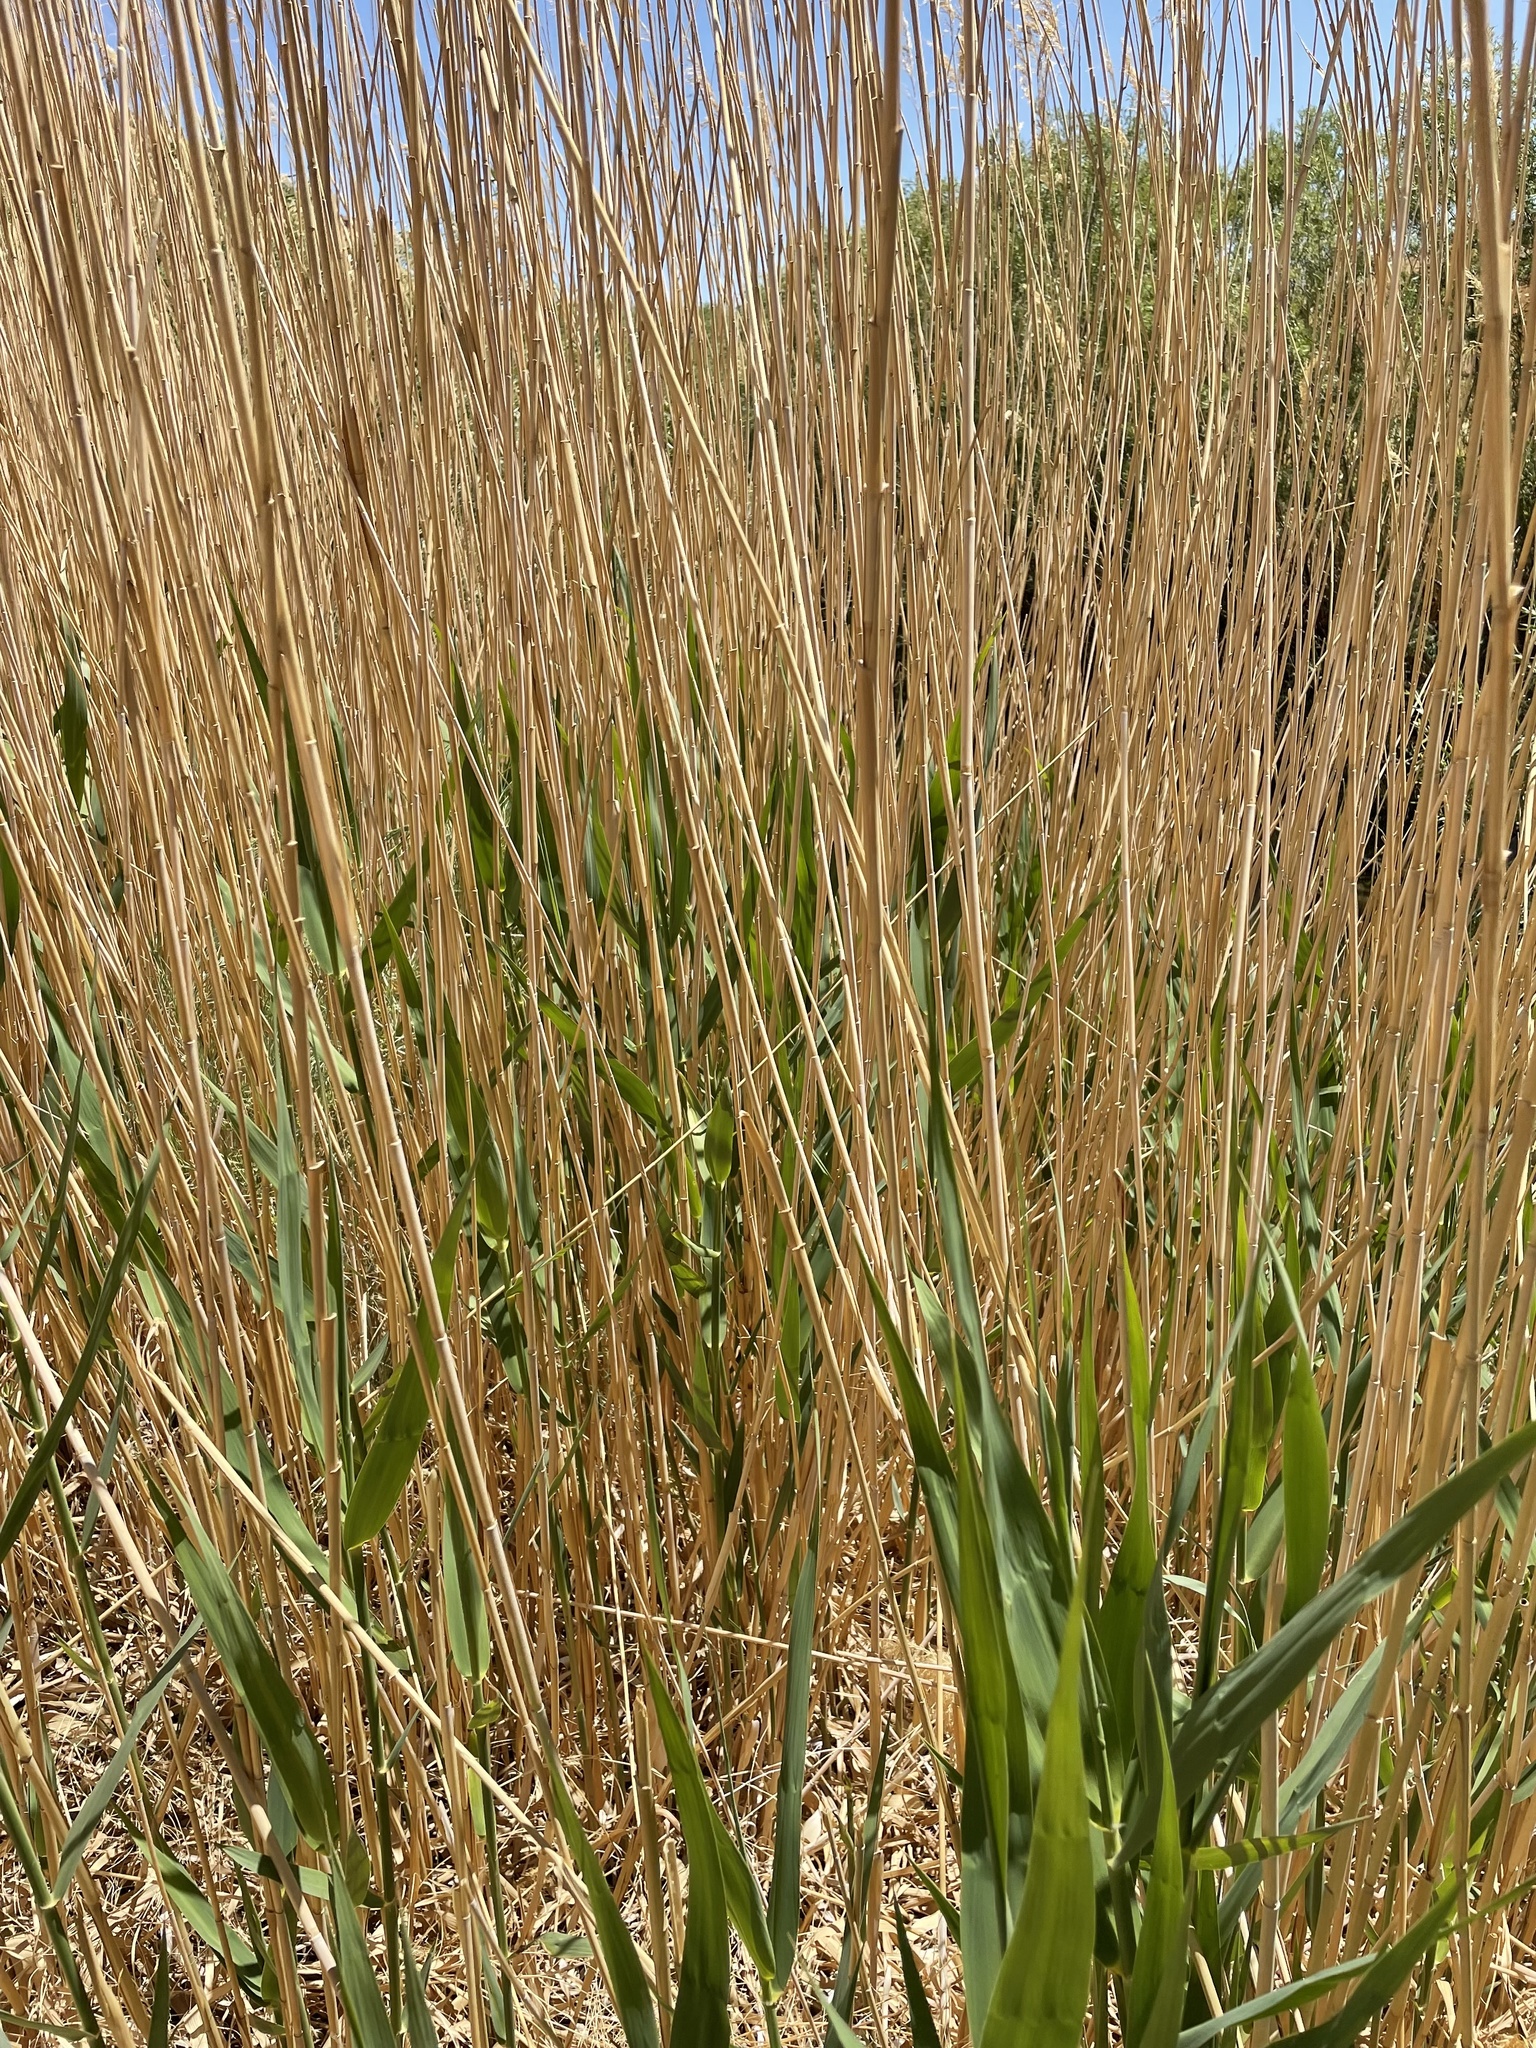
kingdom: Plantae
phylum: Tracheophyta
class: Liliopsida
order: Poales
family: Poaceae
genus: Phragmites
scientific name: Phragmites australis
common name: Common reed
